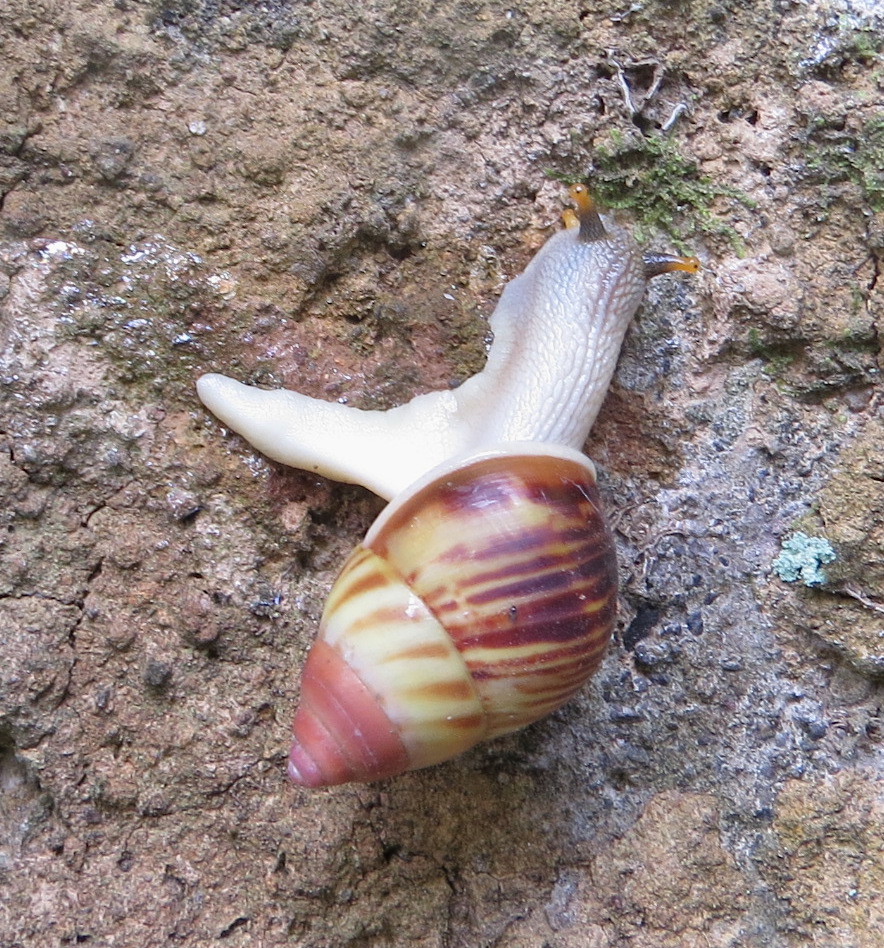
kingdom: Animalia
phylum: Mollusca
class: Gastropoda
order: Stylommatophora
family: Camaenidae
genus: Amphidromus
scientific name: Amphidromus perversus
